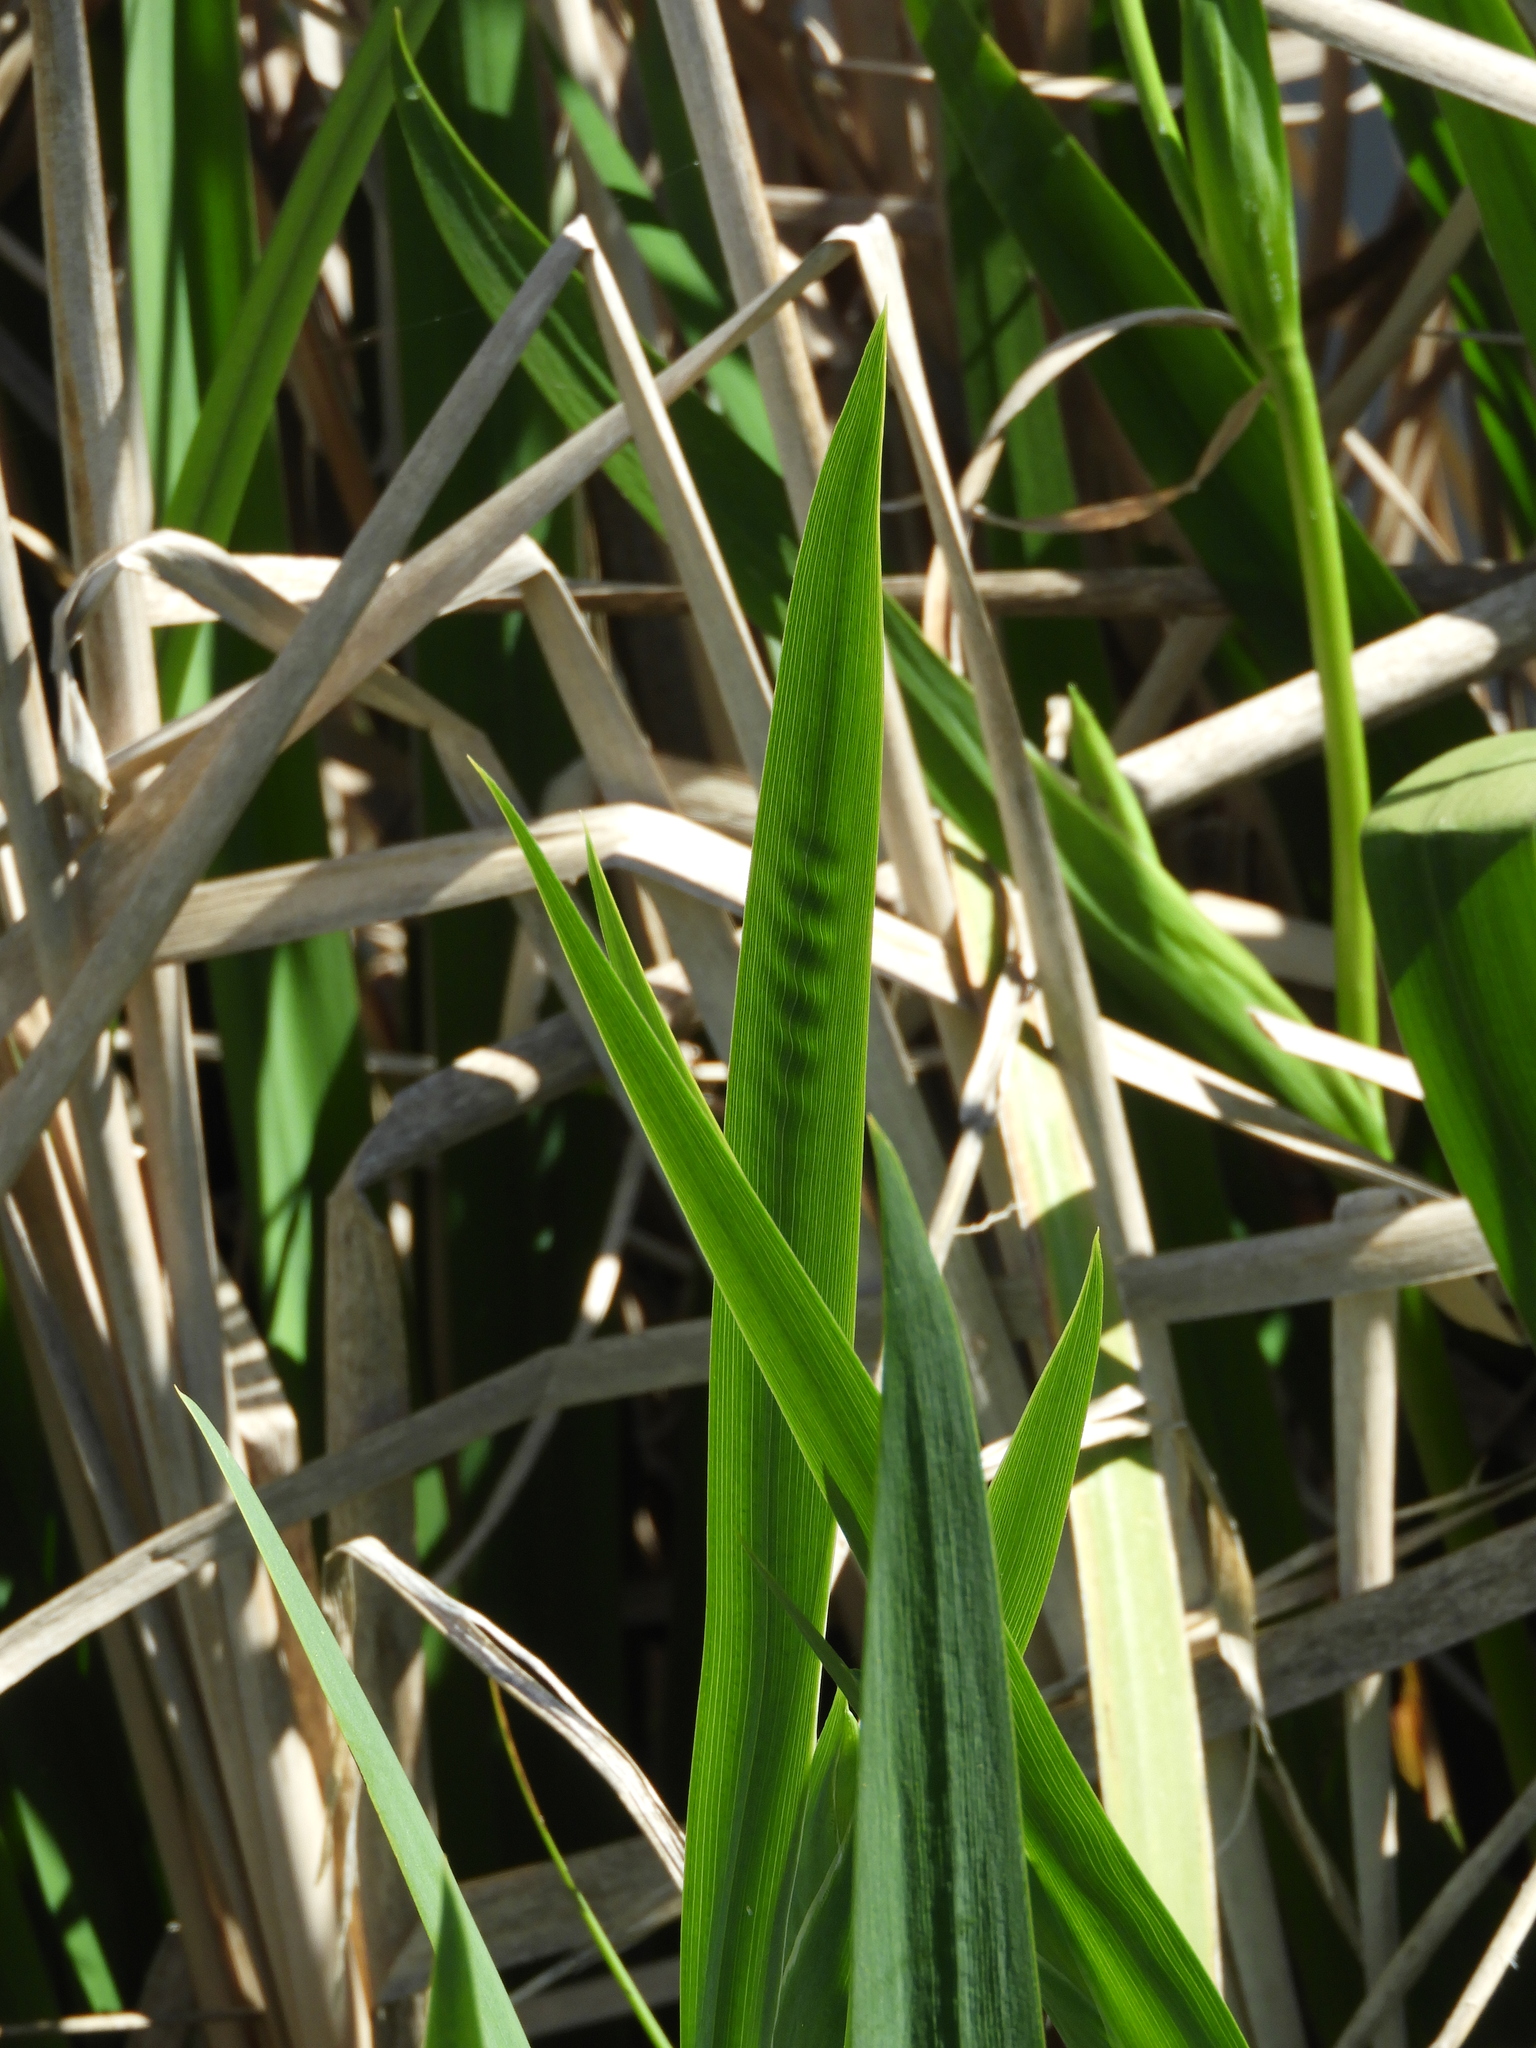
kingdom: Plantae
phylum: Tracheophyta
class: Liliopsida
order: Asparagales
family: Iridaceae
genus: Iris
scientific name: Iris pseudacorus
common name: Yellow flag
